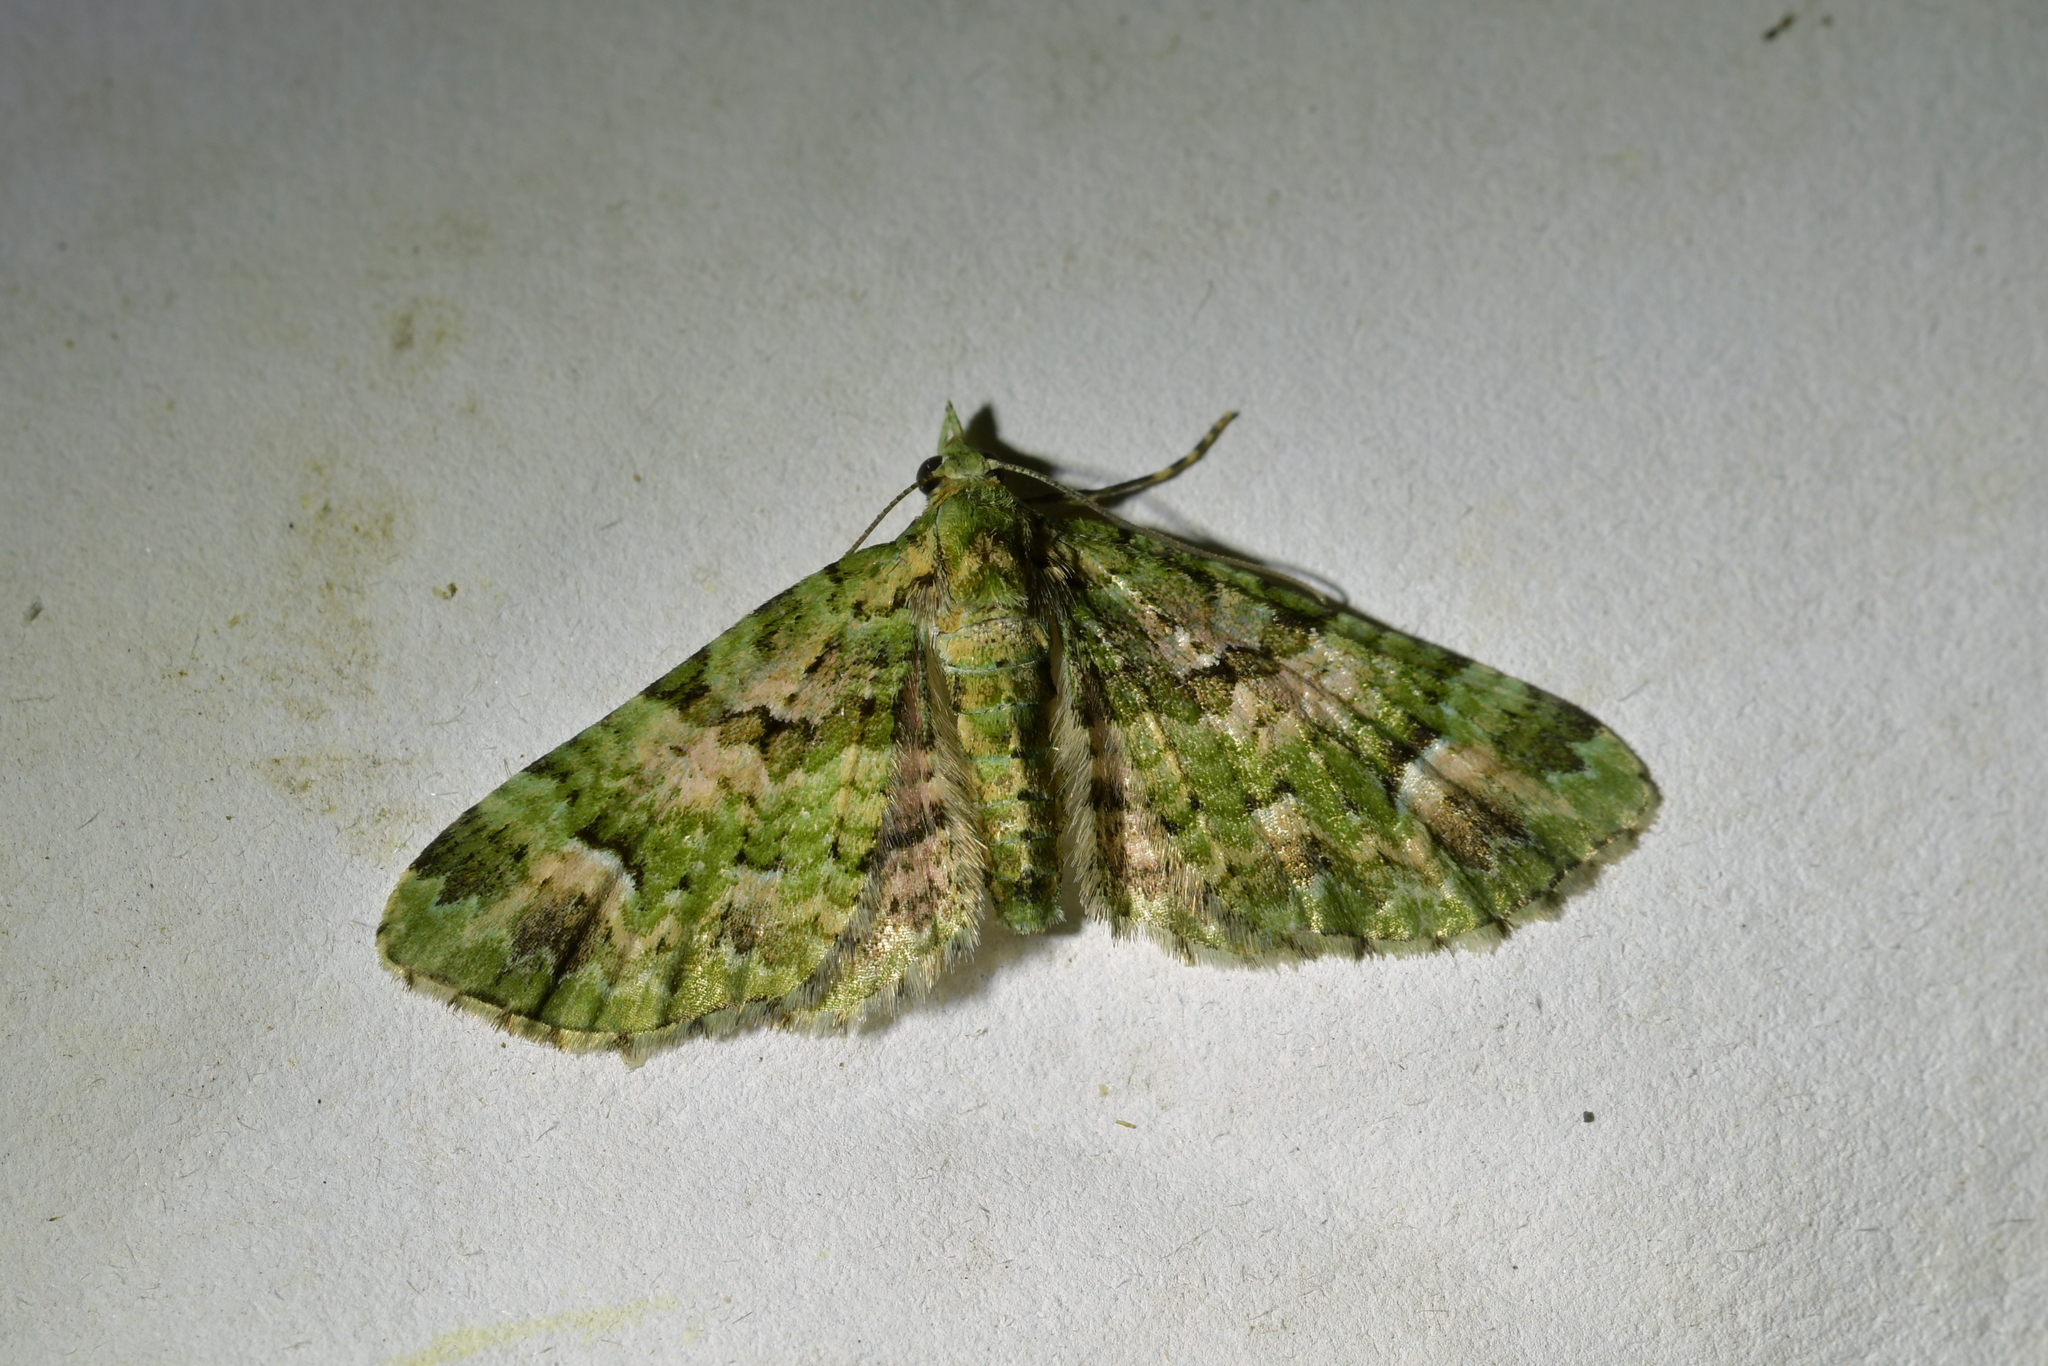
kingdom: Animalia
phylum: Arthropoda
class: Insecta
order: Lepidoptera
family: Geometridae
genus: Pasiphila
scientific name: Pasiphila semochlora
